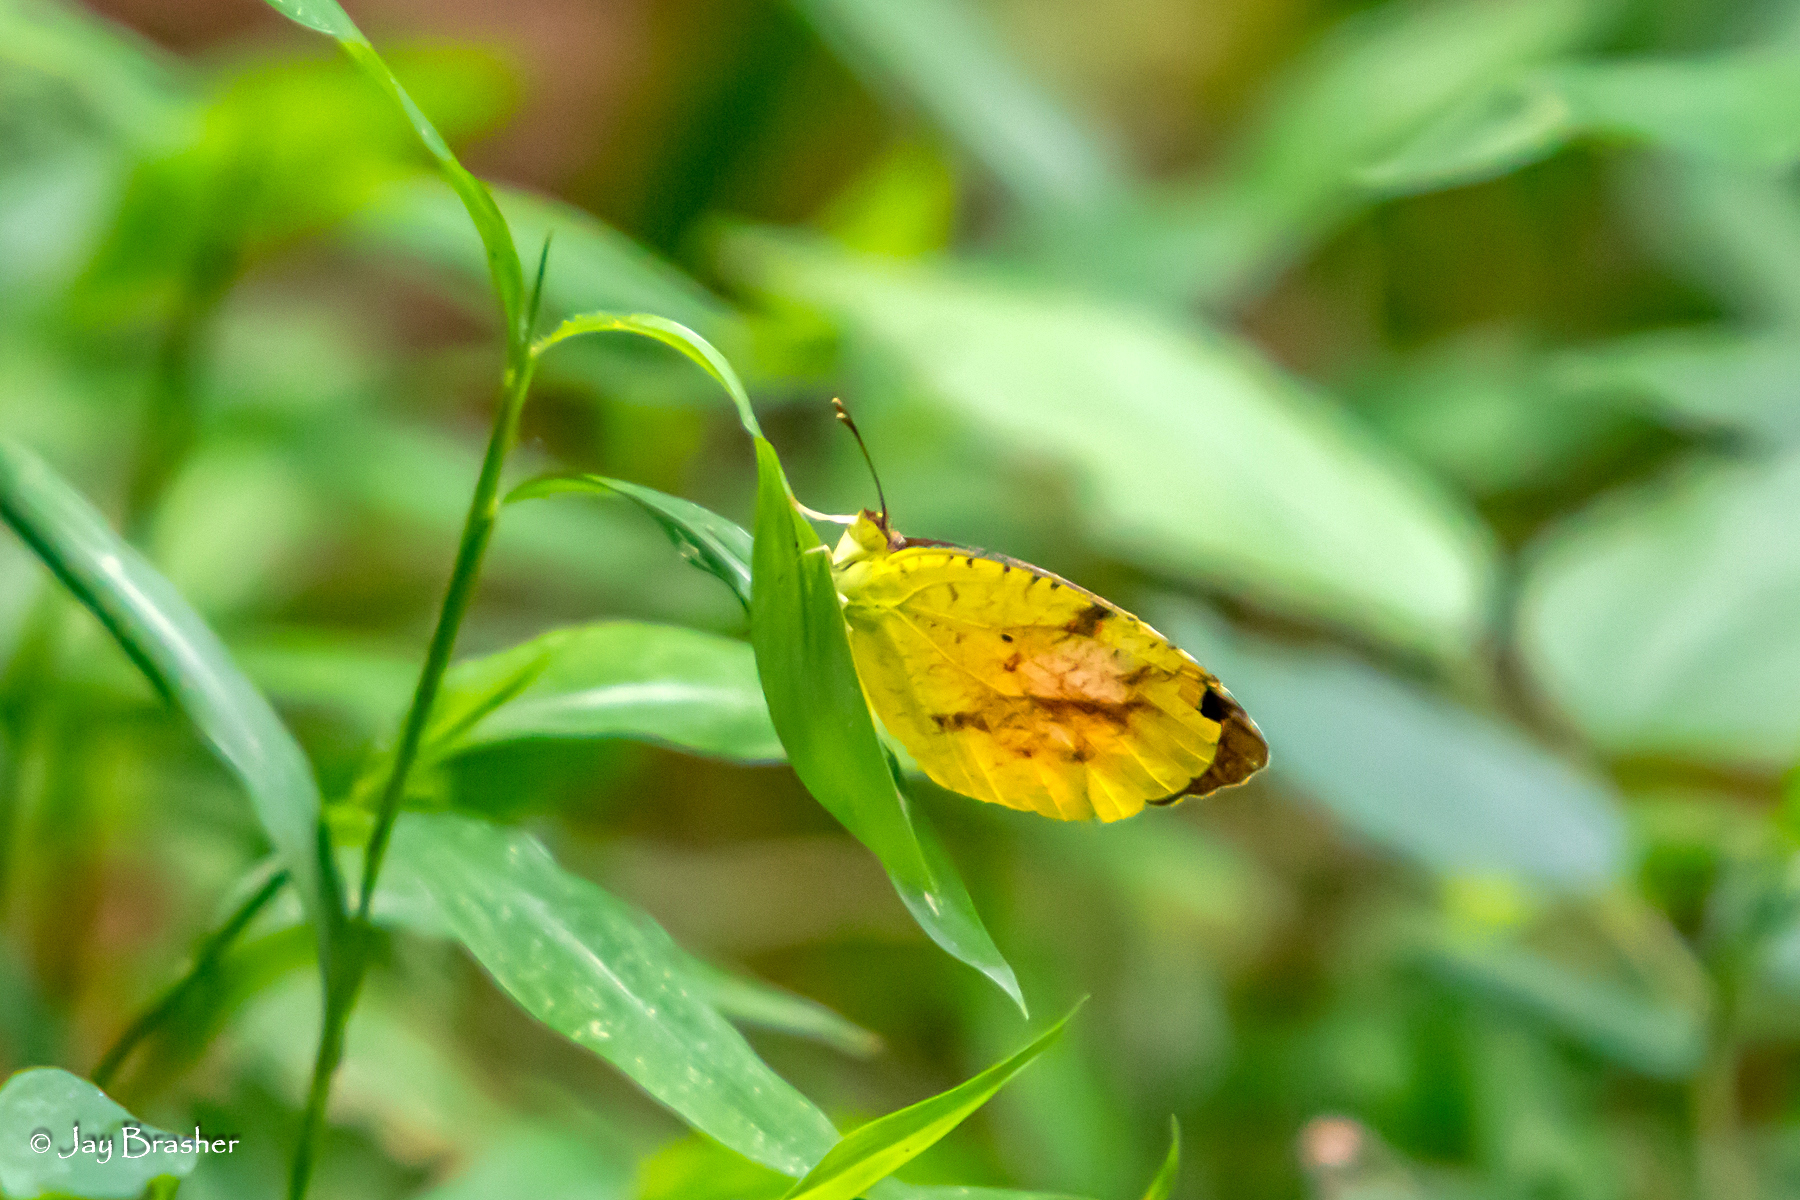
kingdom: Animalia
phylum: Arthropoda
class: Insecta
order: Lepidoptera
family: Pieridae
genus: Abaeis
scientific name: Abaeis nicippe
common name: Sleepy orange
